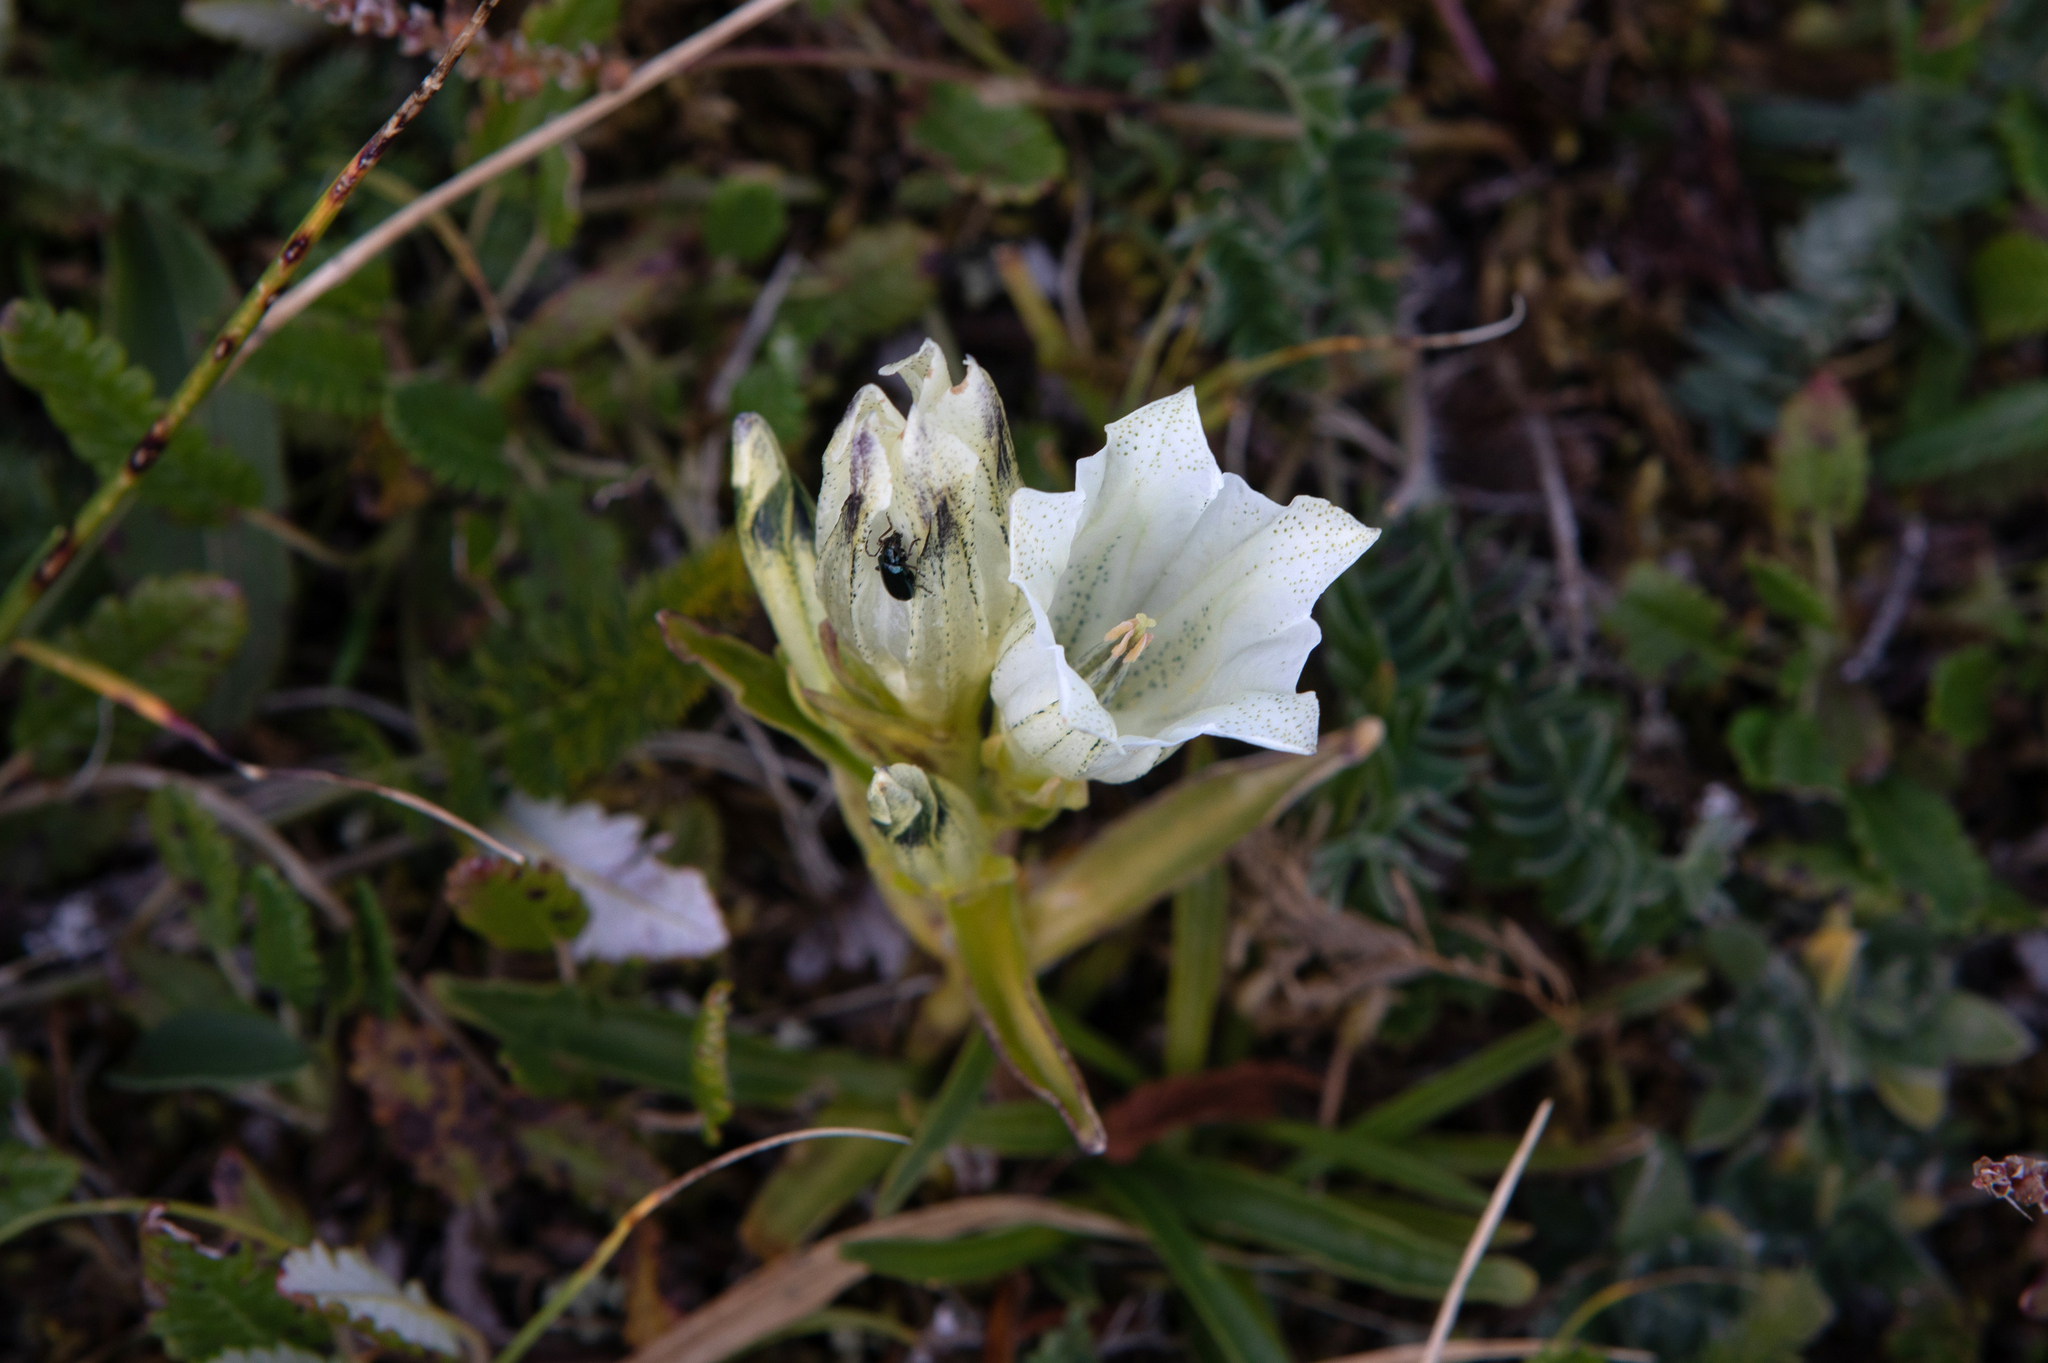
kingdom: Plantae
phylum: Tracheophyta
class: Magnoliopsida
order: Gentianales
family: Gentianaceae
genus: Gentiana
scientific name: Gentiana algida
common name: Arctic gentian
